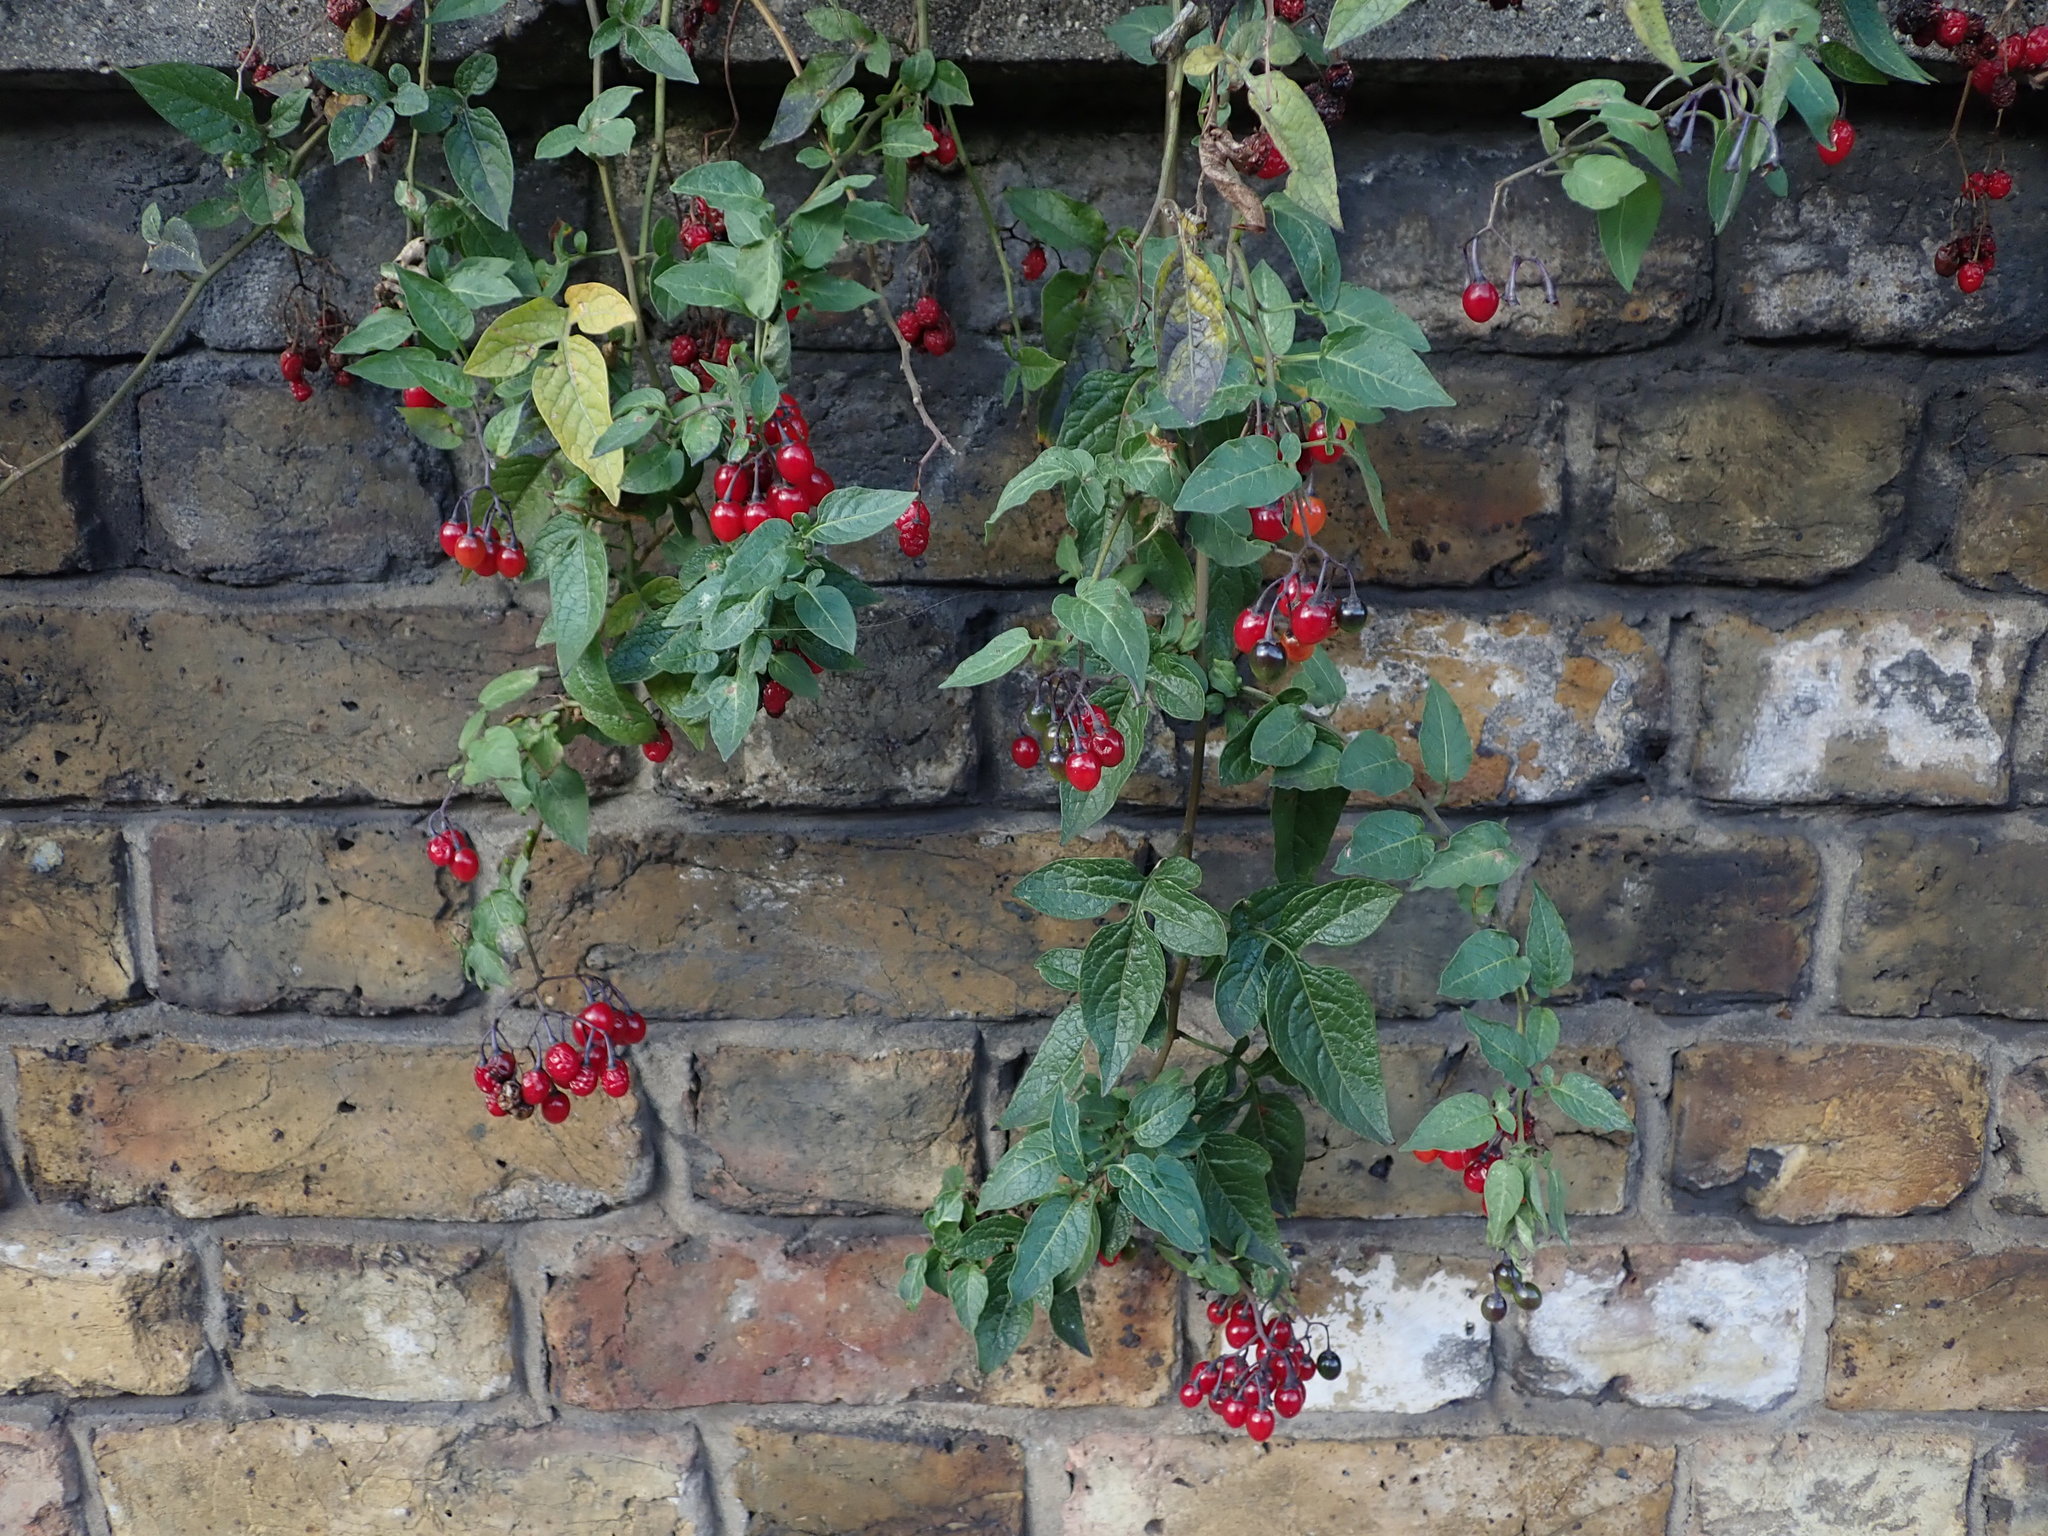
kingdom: Plantae
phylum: Tracheophyta
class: Magnoliopsida
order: Solanales
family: Solanaceae
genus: Solanum
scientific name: Solanum dulcamara
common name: Climbing nightshade
